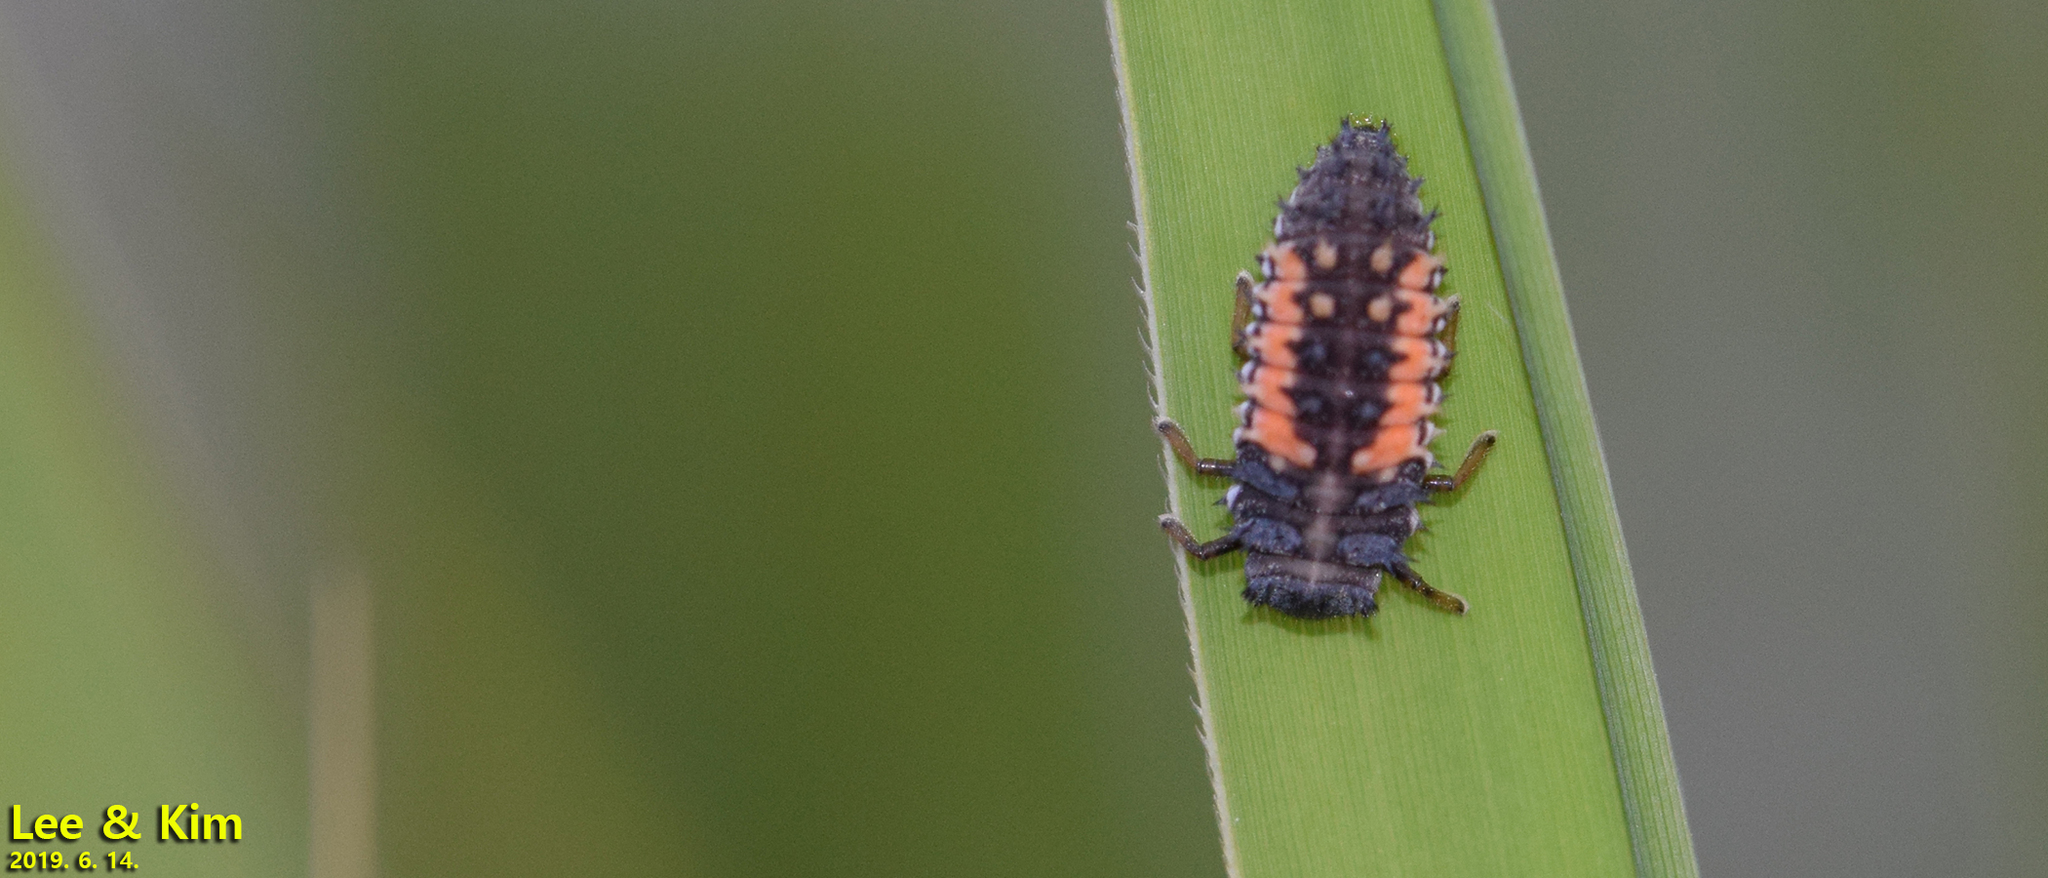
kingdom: Animalia
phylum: Arthropoda
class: Insecta
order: Coleoptera
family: Coccinellidae
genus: Harmonia
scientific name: Harmonia axyridis
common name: Harlequin ladybird
